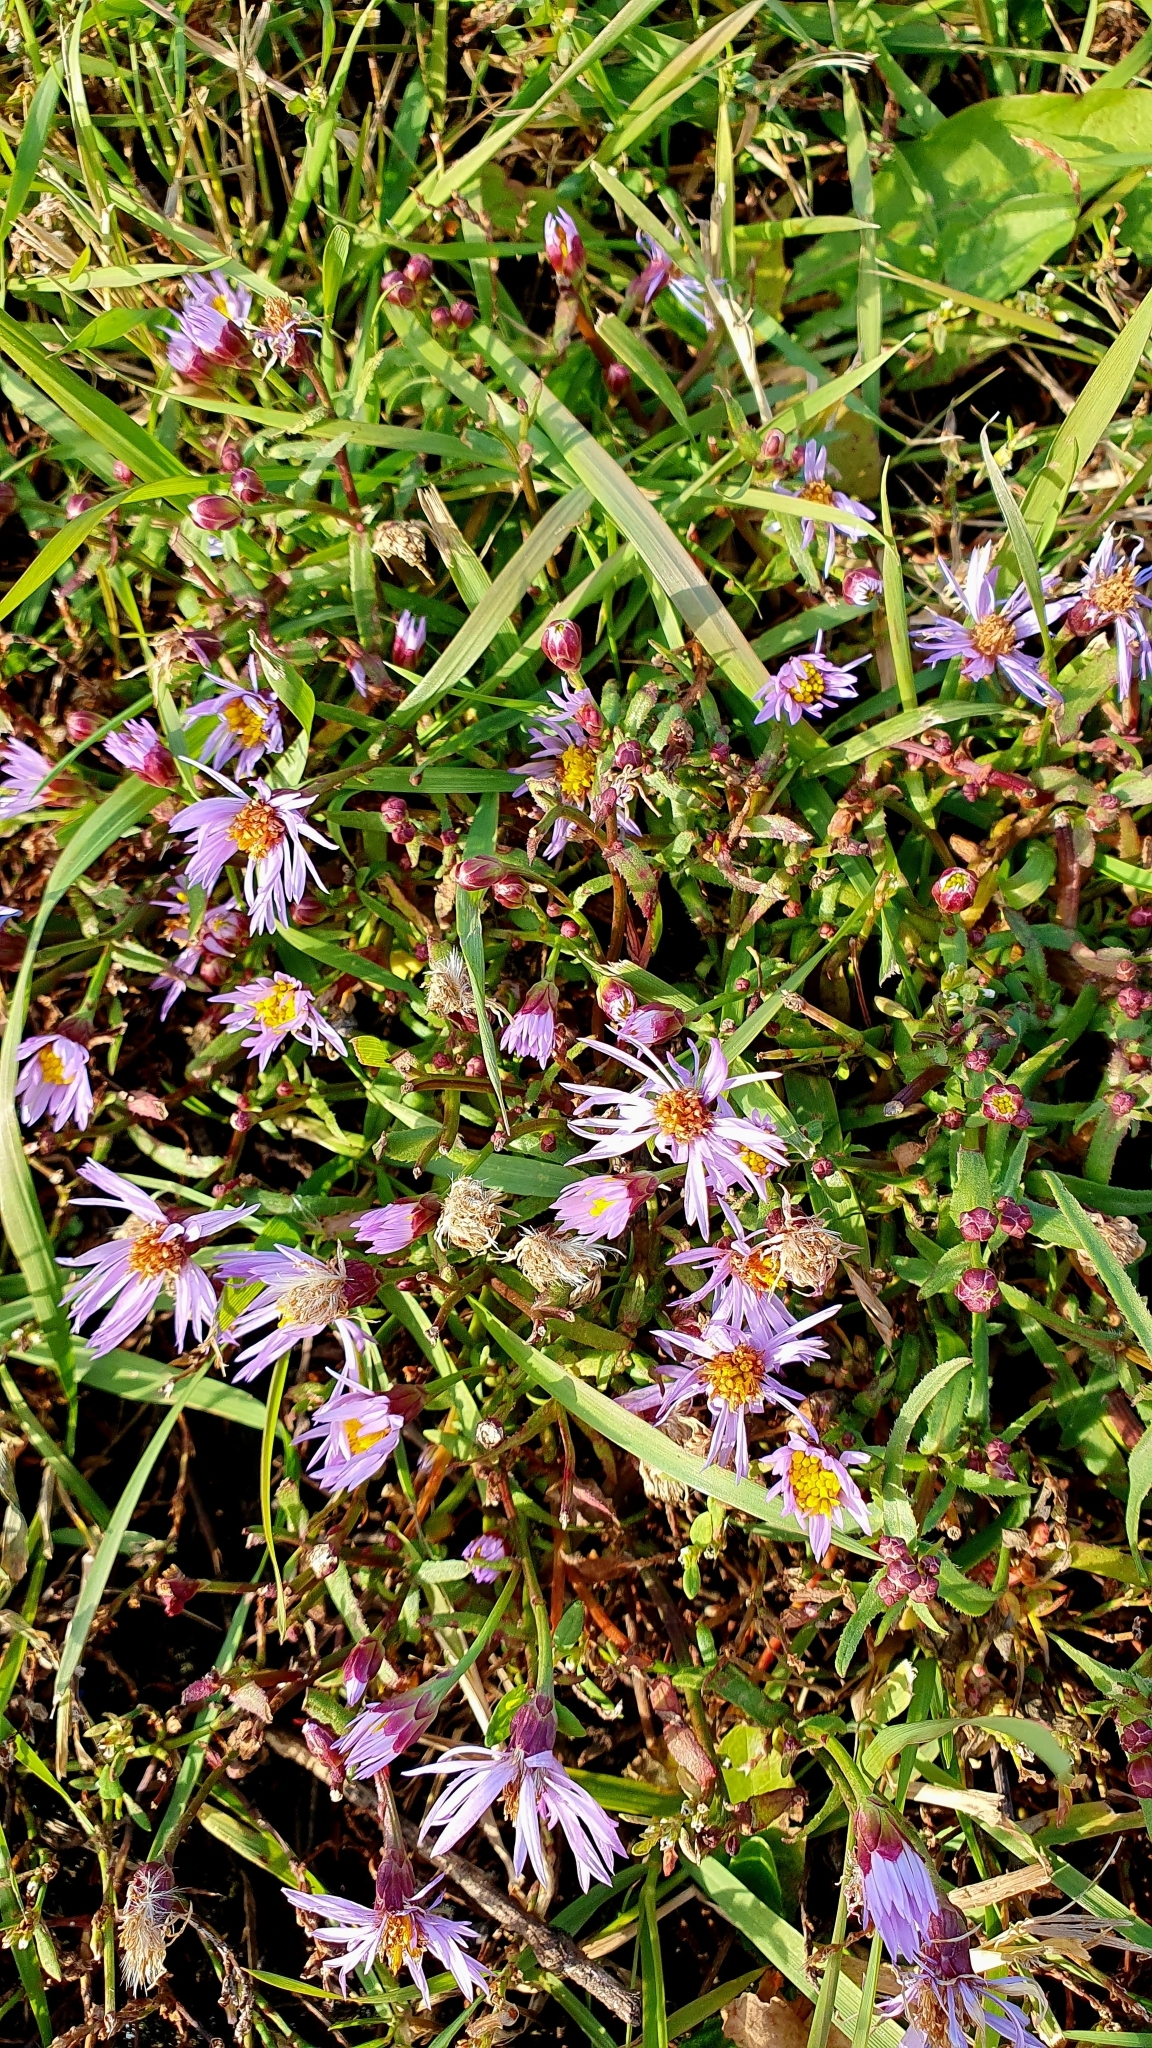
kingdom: Plantae
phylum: Tracheophyta
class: Magnoliopsida
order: Asterales
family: Asteraceae
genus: Tripolium
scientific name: Tripolium pannonicum
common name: Sea aster
